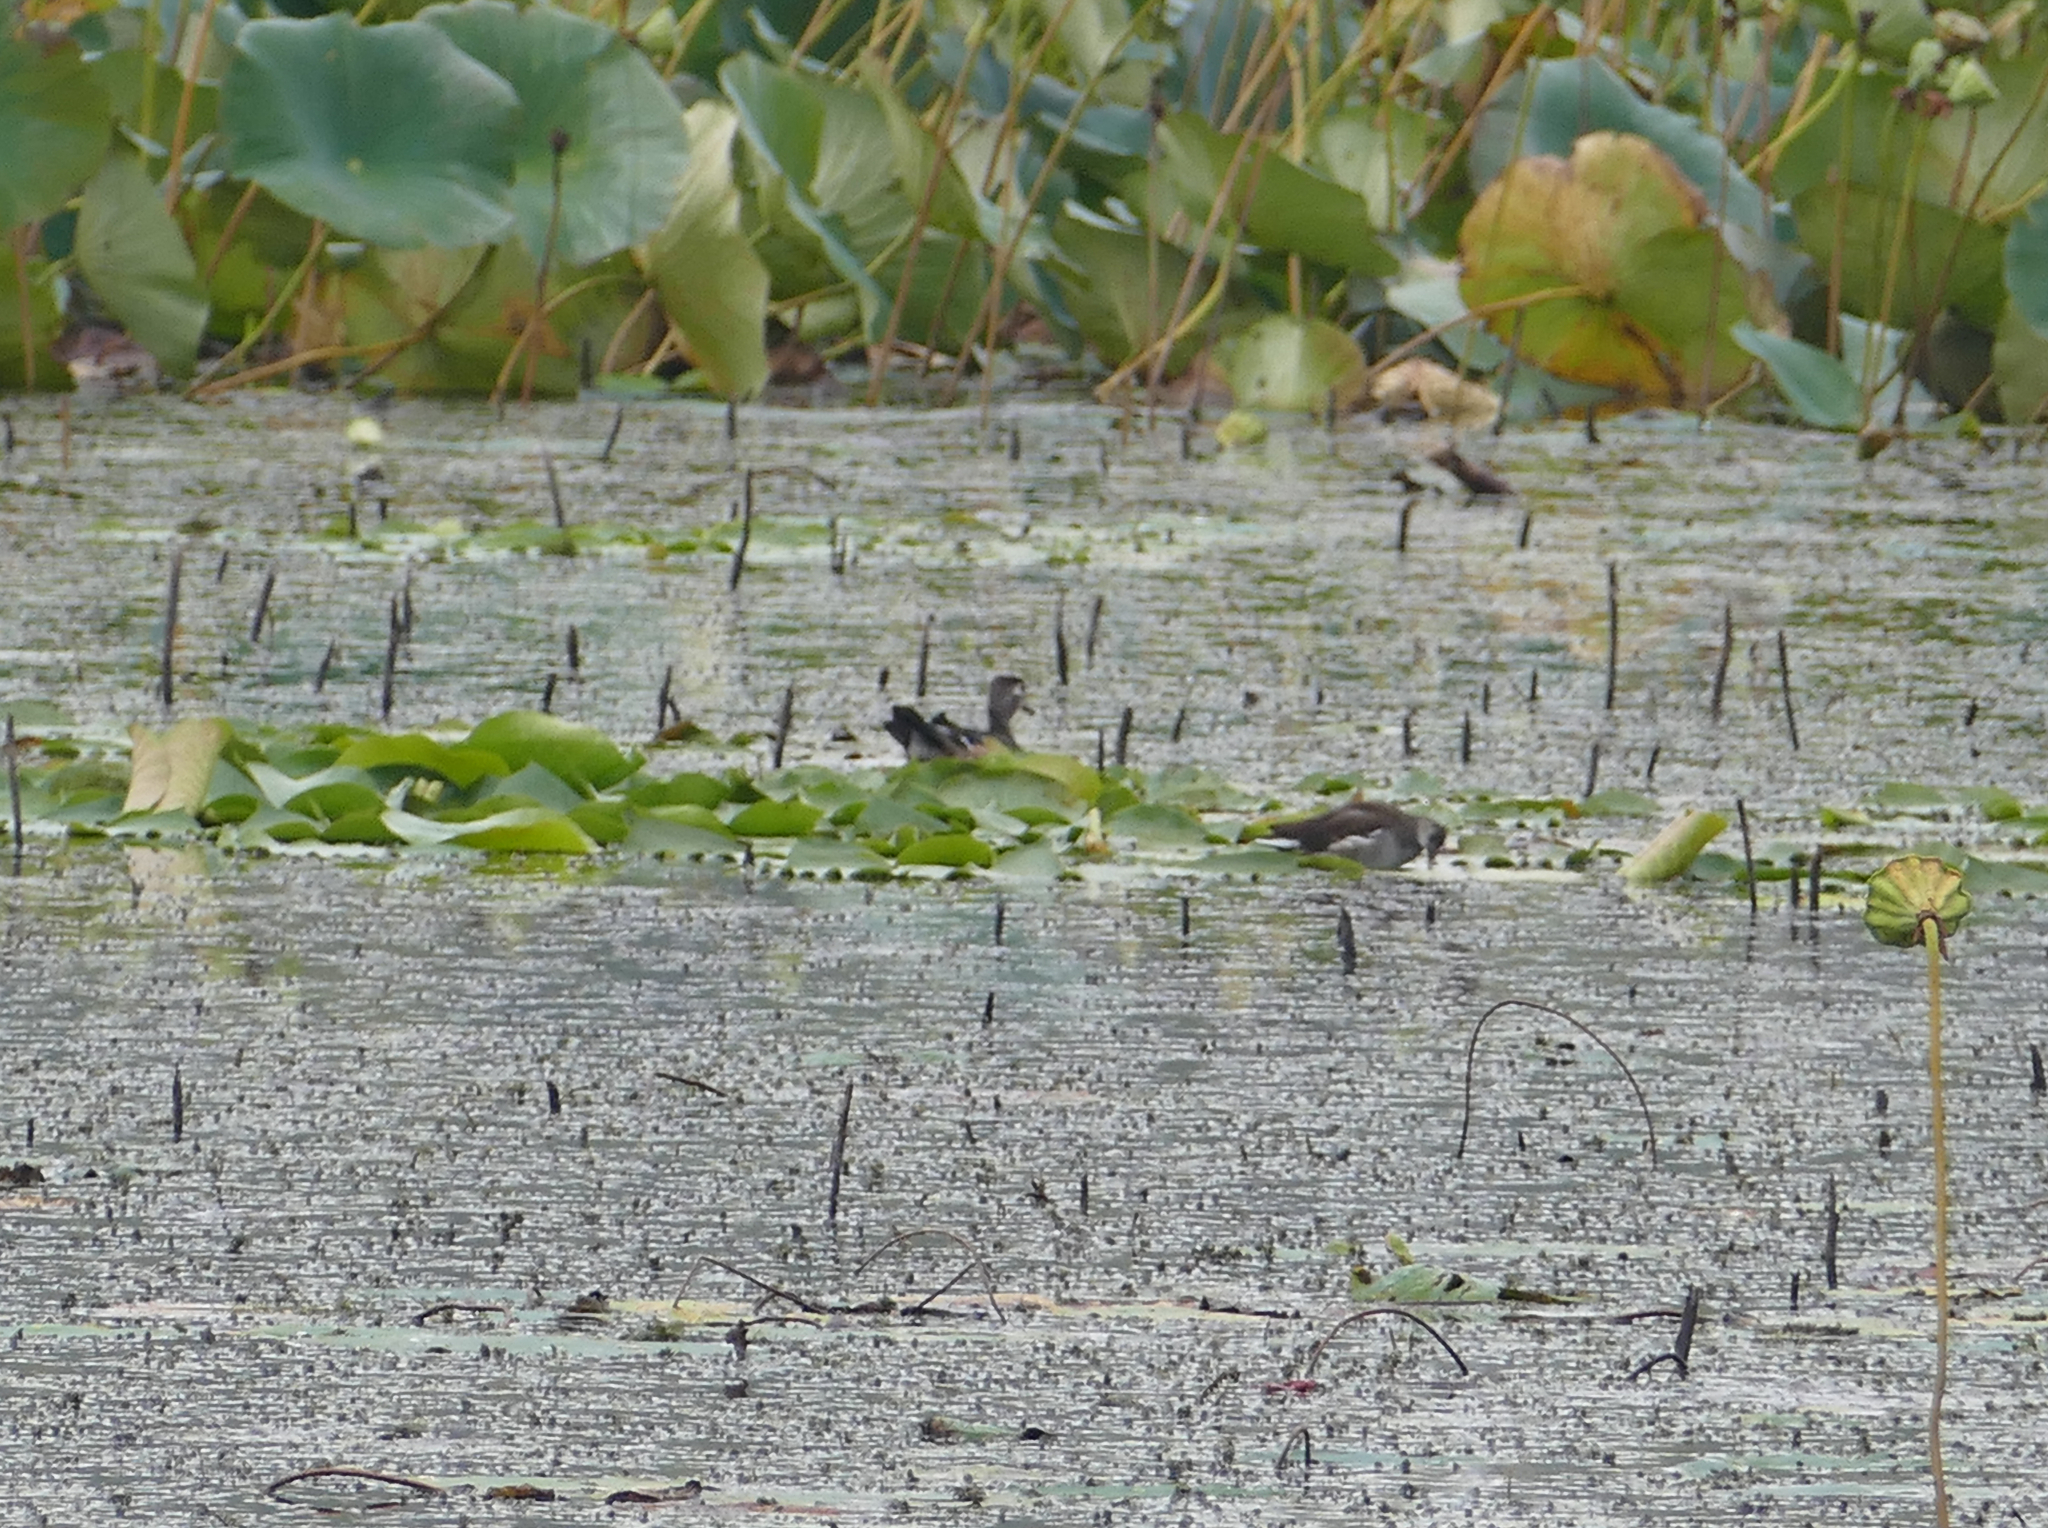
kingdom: Animalia
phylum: Chordata
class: Aves
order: Anseriformes
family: Anatidae
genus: Aix
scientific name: Aix sponsa
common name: Wood duck
